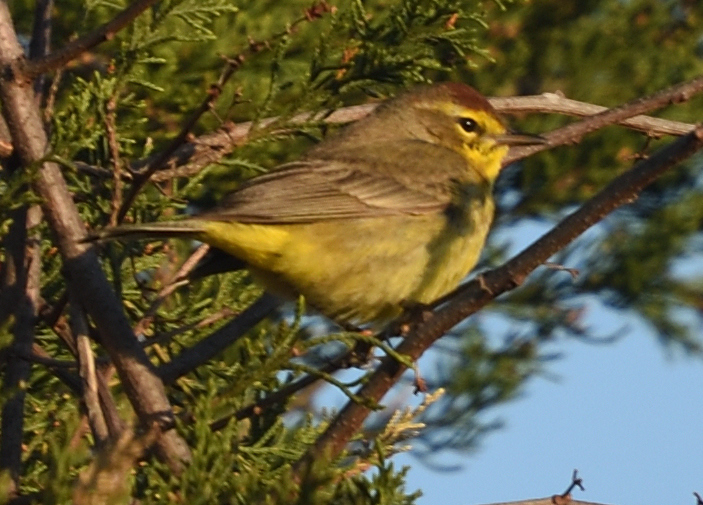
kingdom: Animalia
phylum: Chordata
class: Aves
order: Passeriformes
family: Parulidae
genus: Setophaga
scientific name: Setophaga palmarum
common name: Palm warbler
